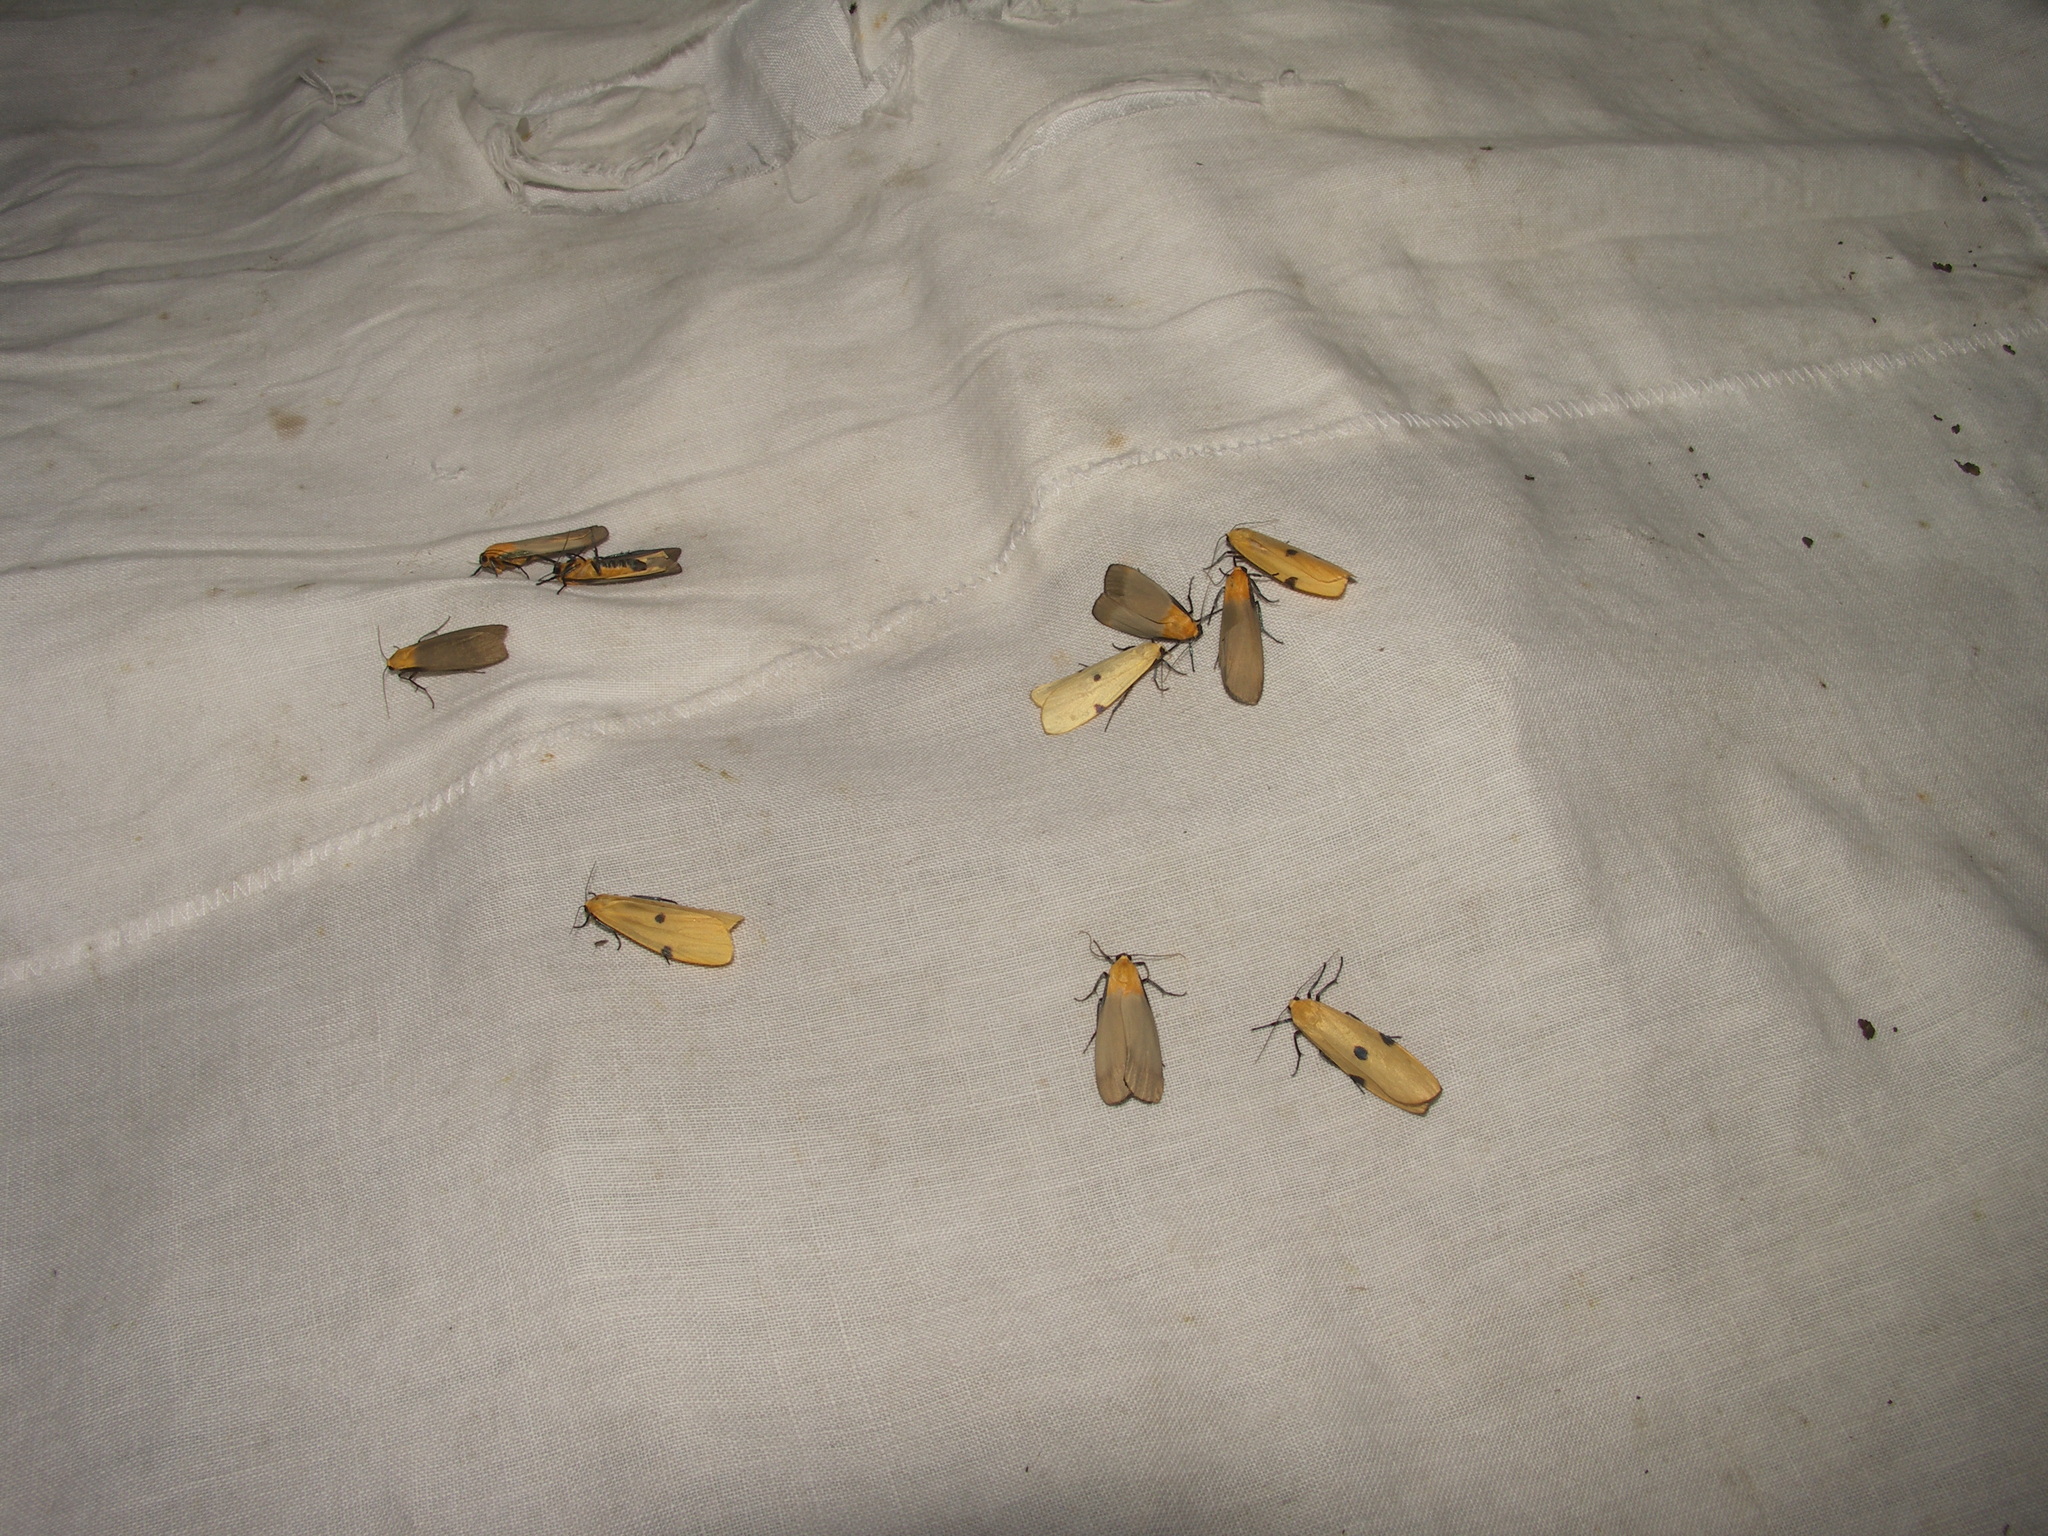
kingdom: Animalia
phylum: Arthropoda
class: Insecta
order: Lepidoptera
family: Erebidae
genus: Lithosia
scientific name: Lithosia quadra
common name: Four-spotted footman
